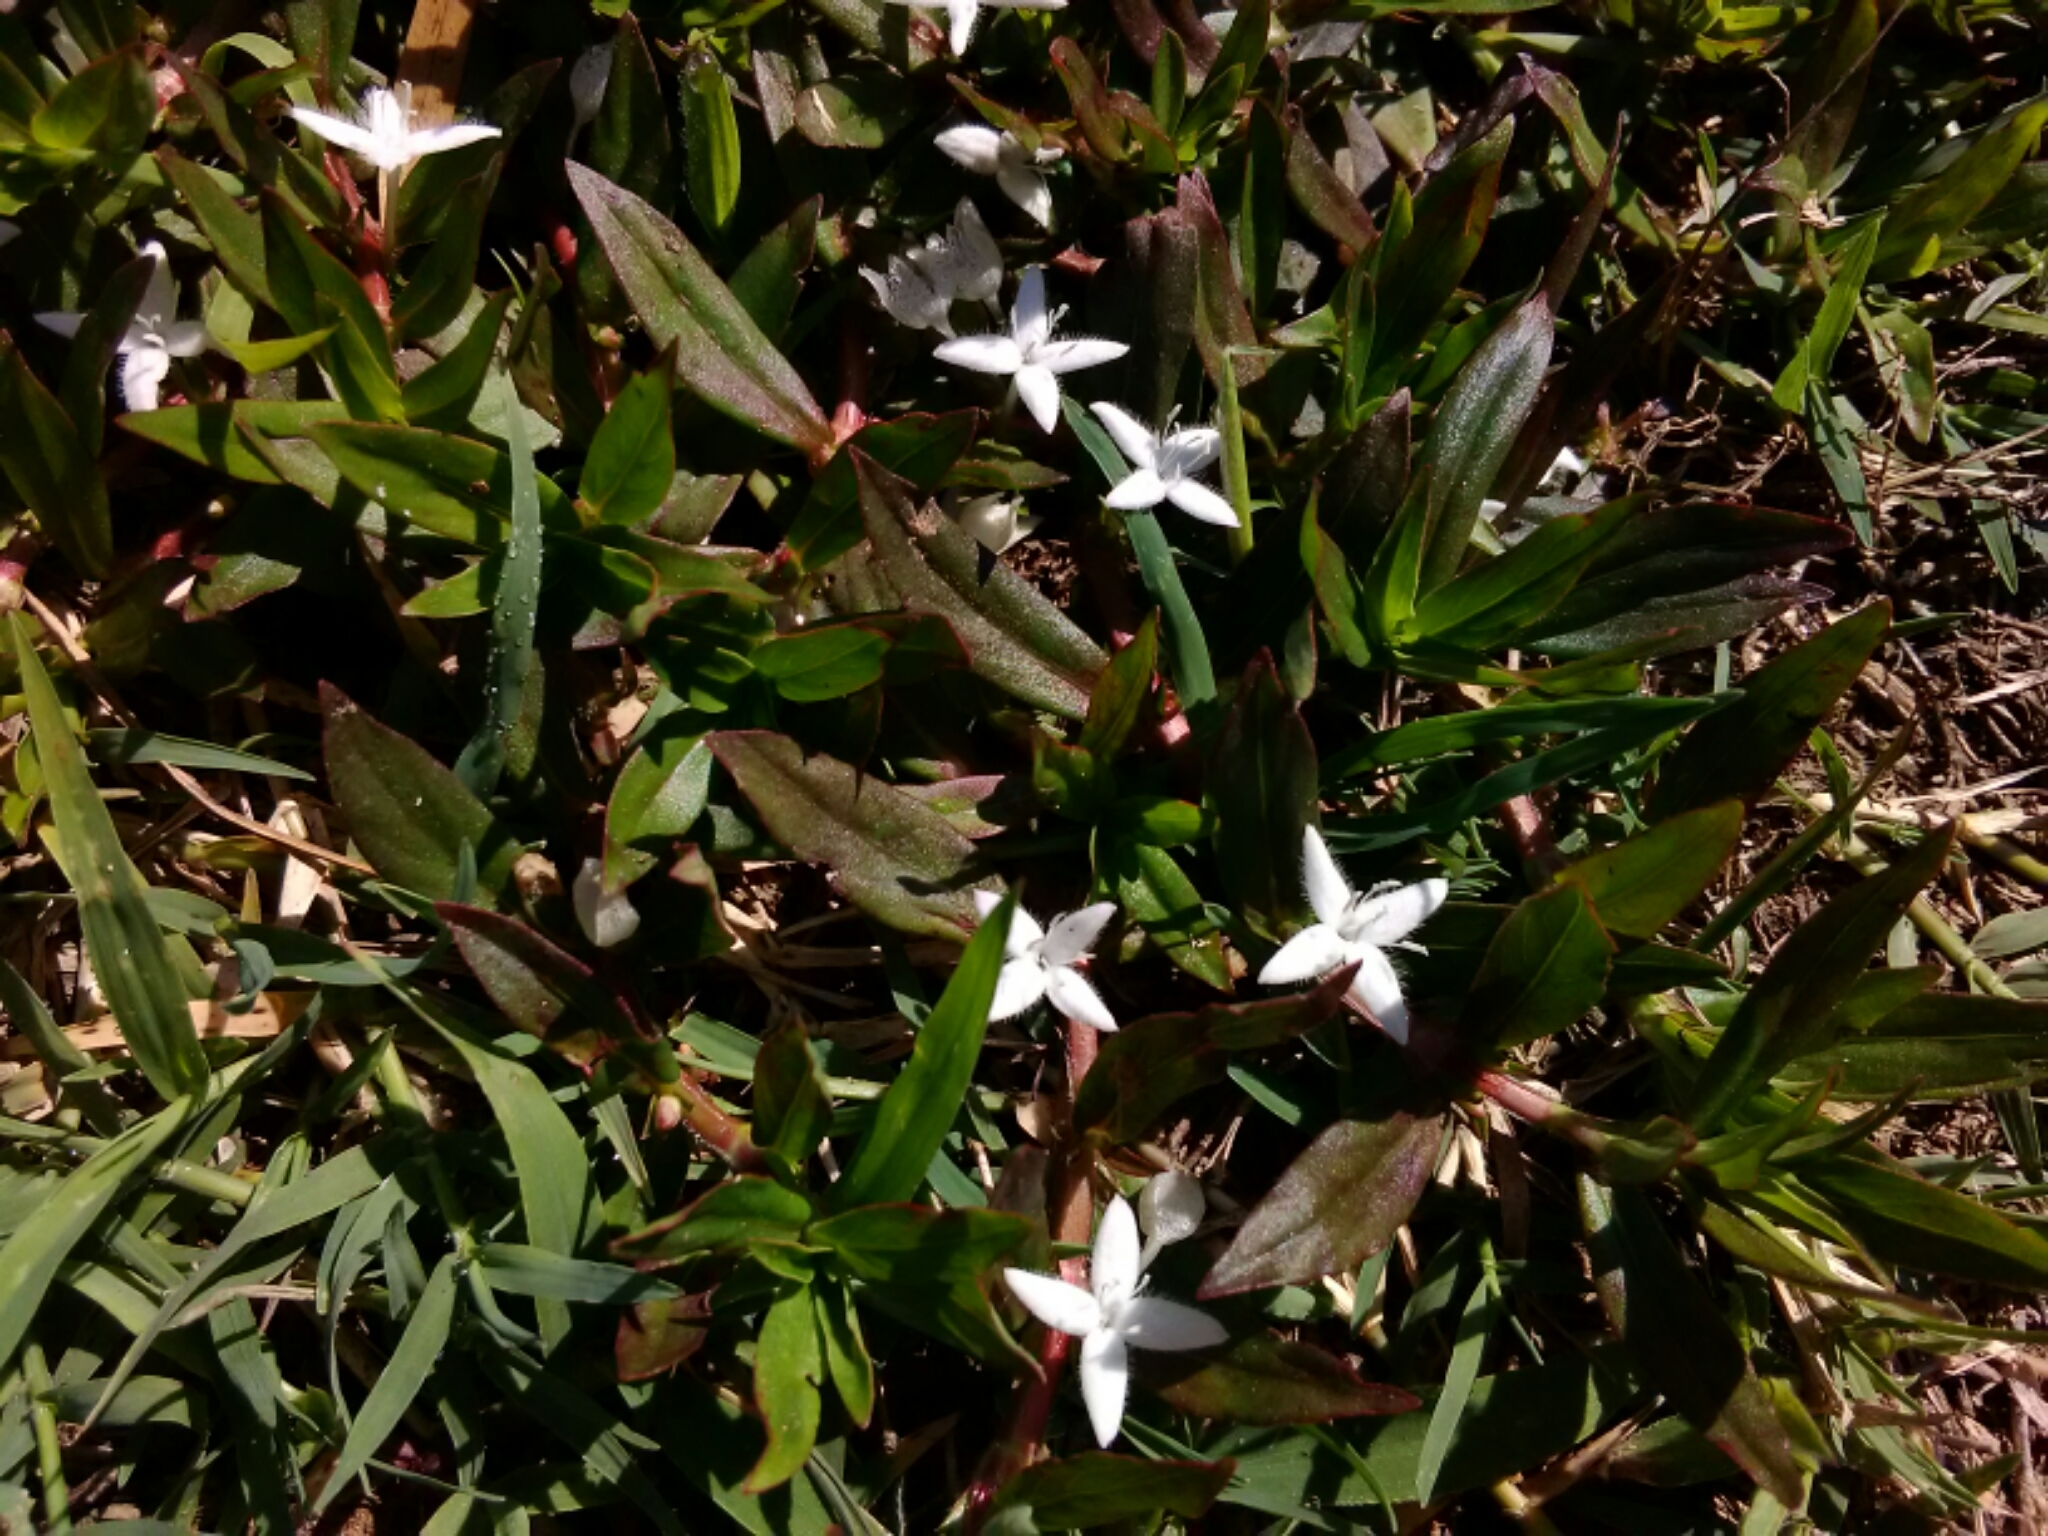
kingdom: Plantae
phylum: Tracheophyta
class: Magnoliopsida
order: Gentianales
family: Rubiaceae
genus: Diodia
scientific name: Diodia virginiana
